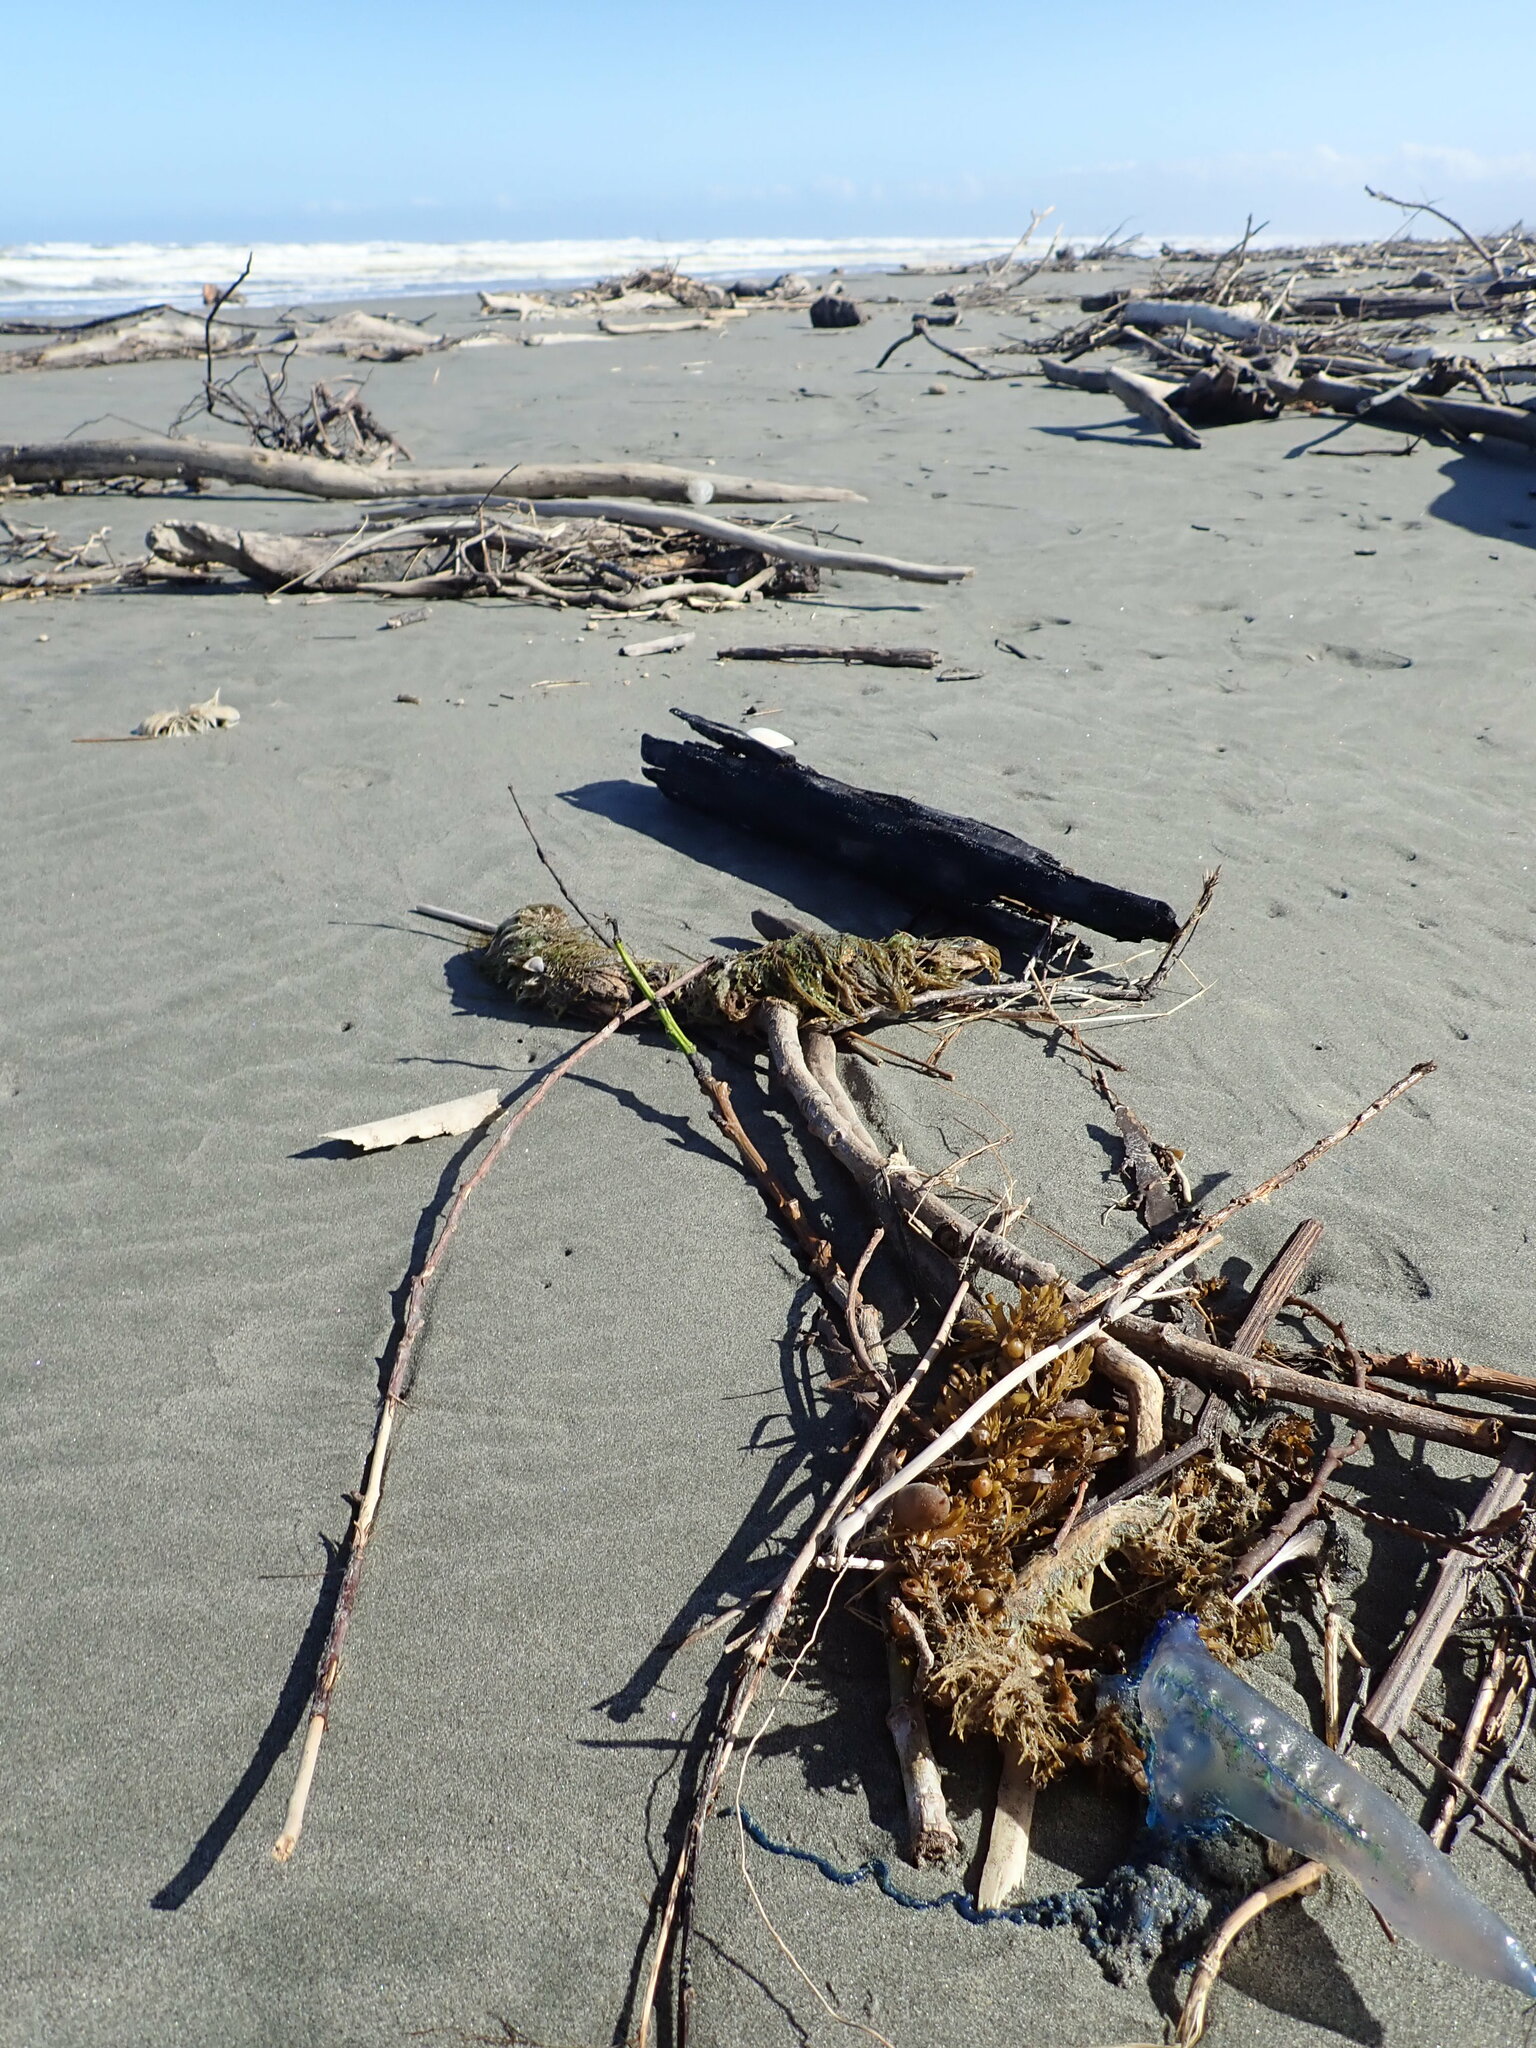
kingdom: Animalia
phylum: Cnidaria
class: Hydrozoa
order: Siphonophorae
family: Physaliidae
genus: Physalia
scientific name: Physalia physalis
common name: Portuguese man-of-war
